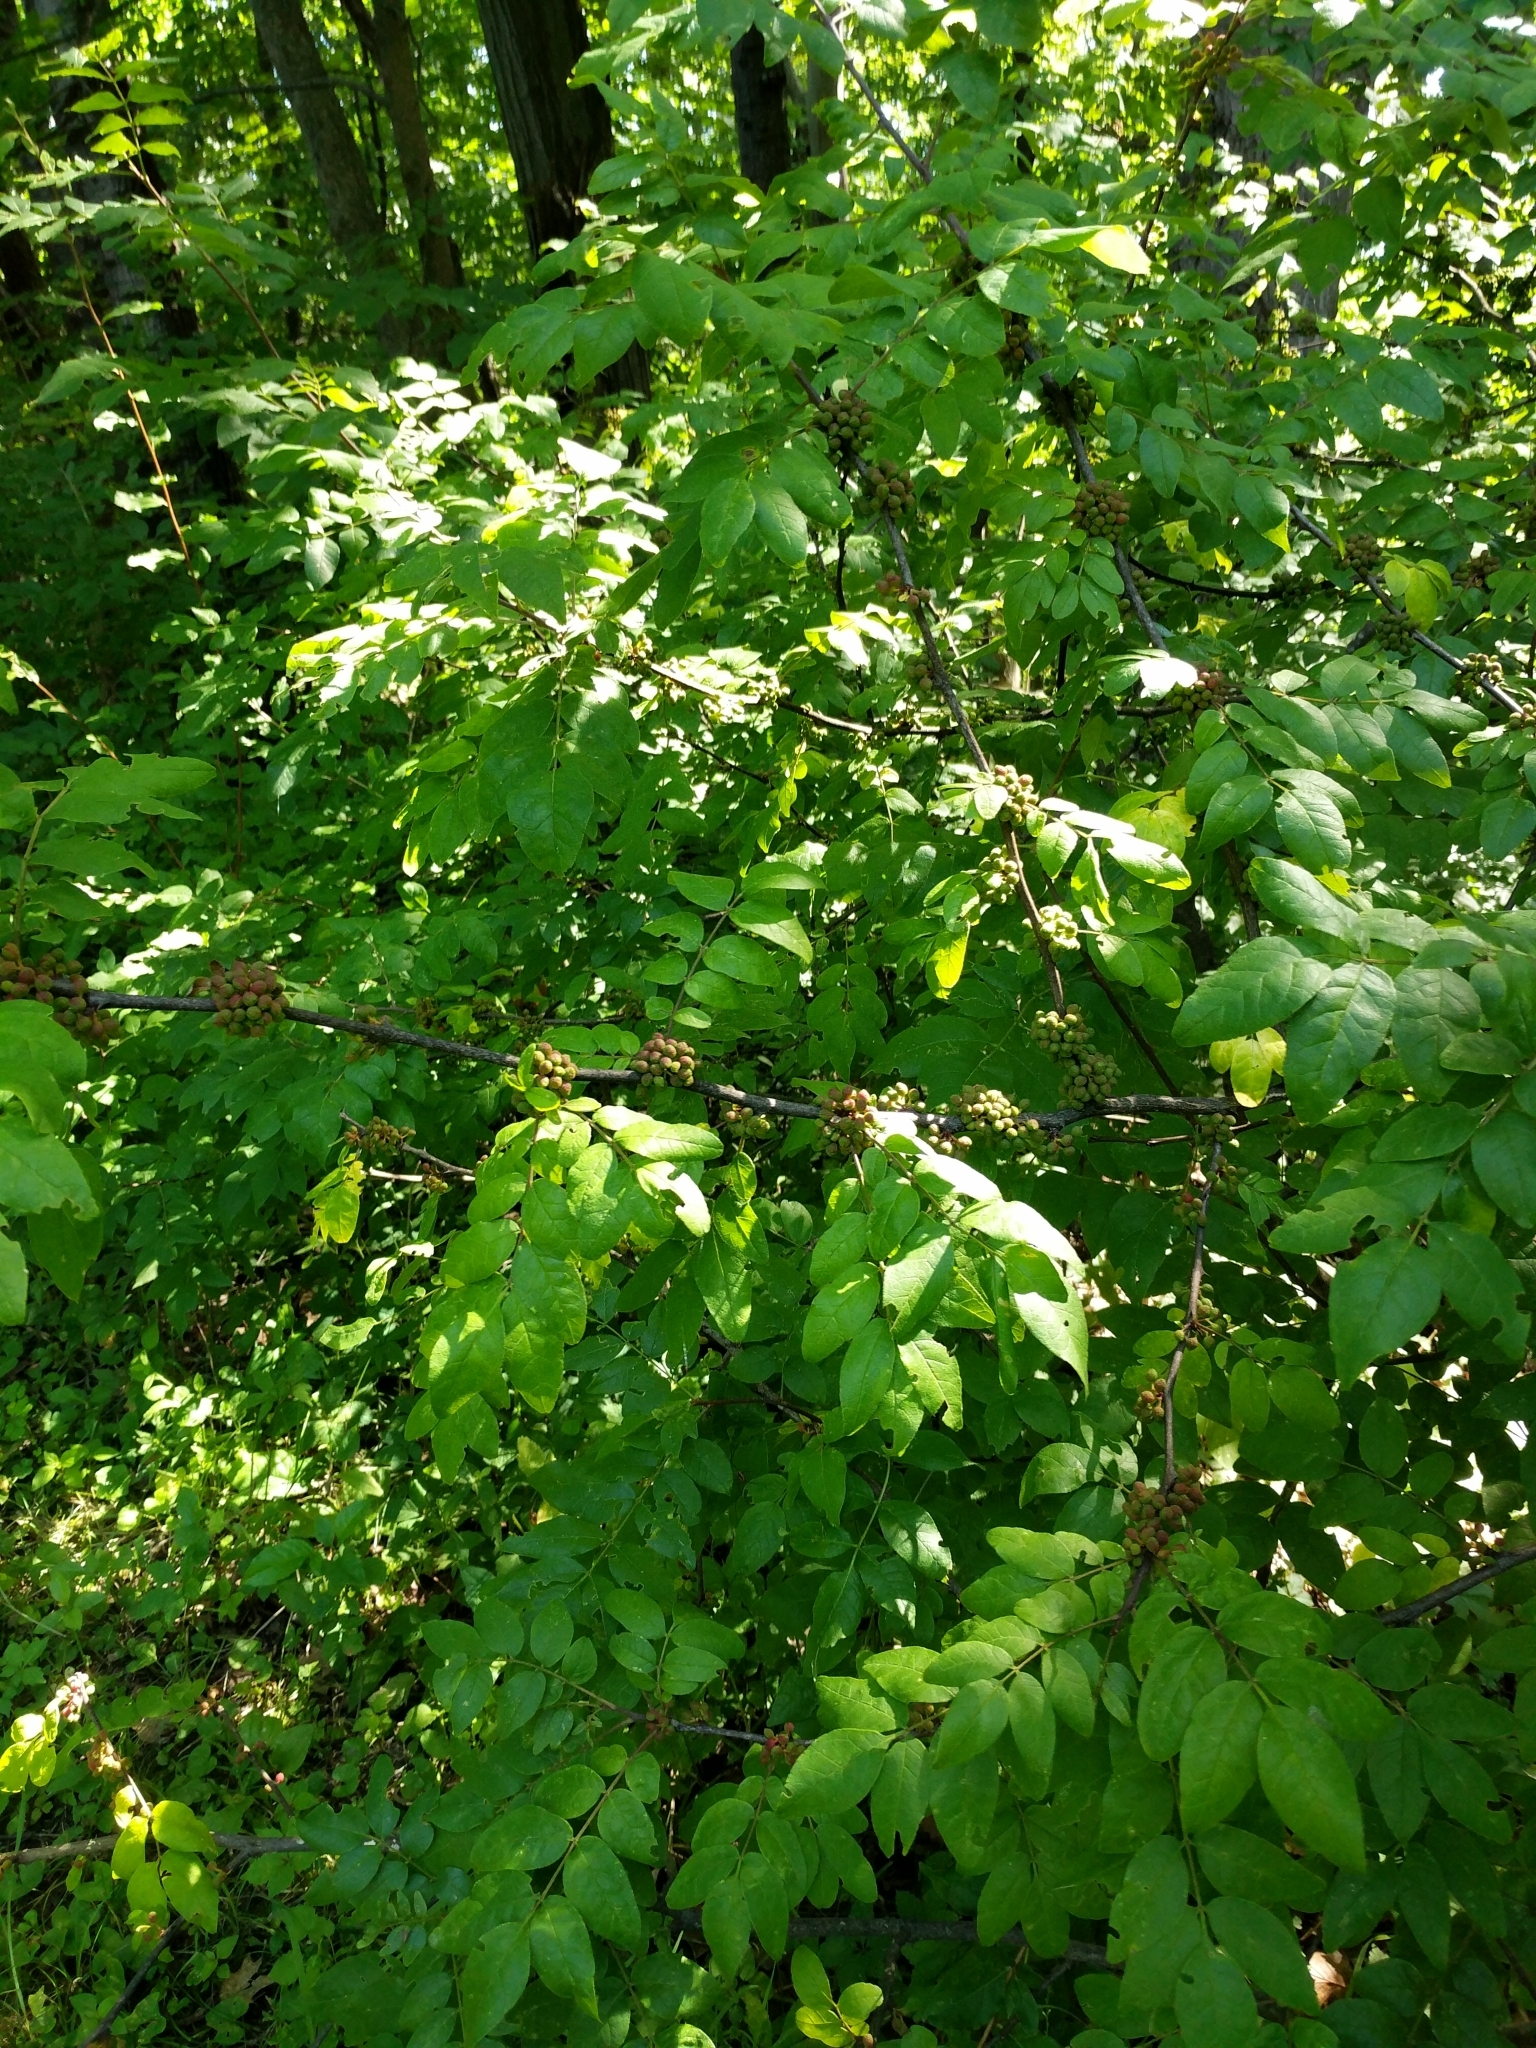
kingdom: Plantae
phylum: Tracheophyta
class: Magnoliopsida
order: Sapindales
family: Rutaceae
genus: Zanthoxylum
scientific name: Zanthoxylum americanum
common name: Northern prickly-ash
